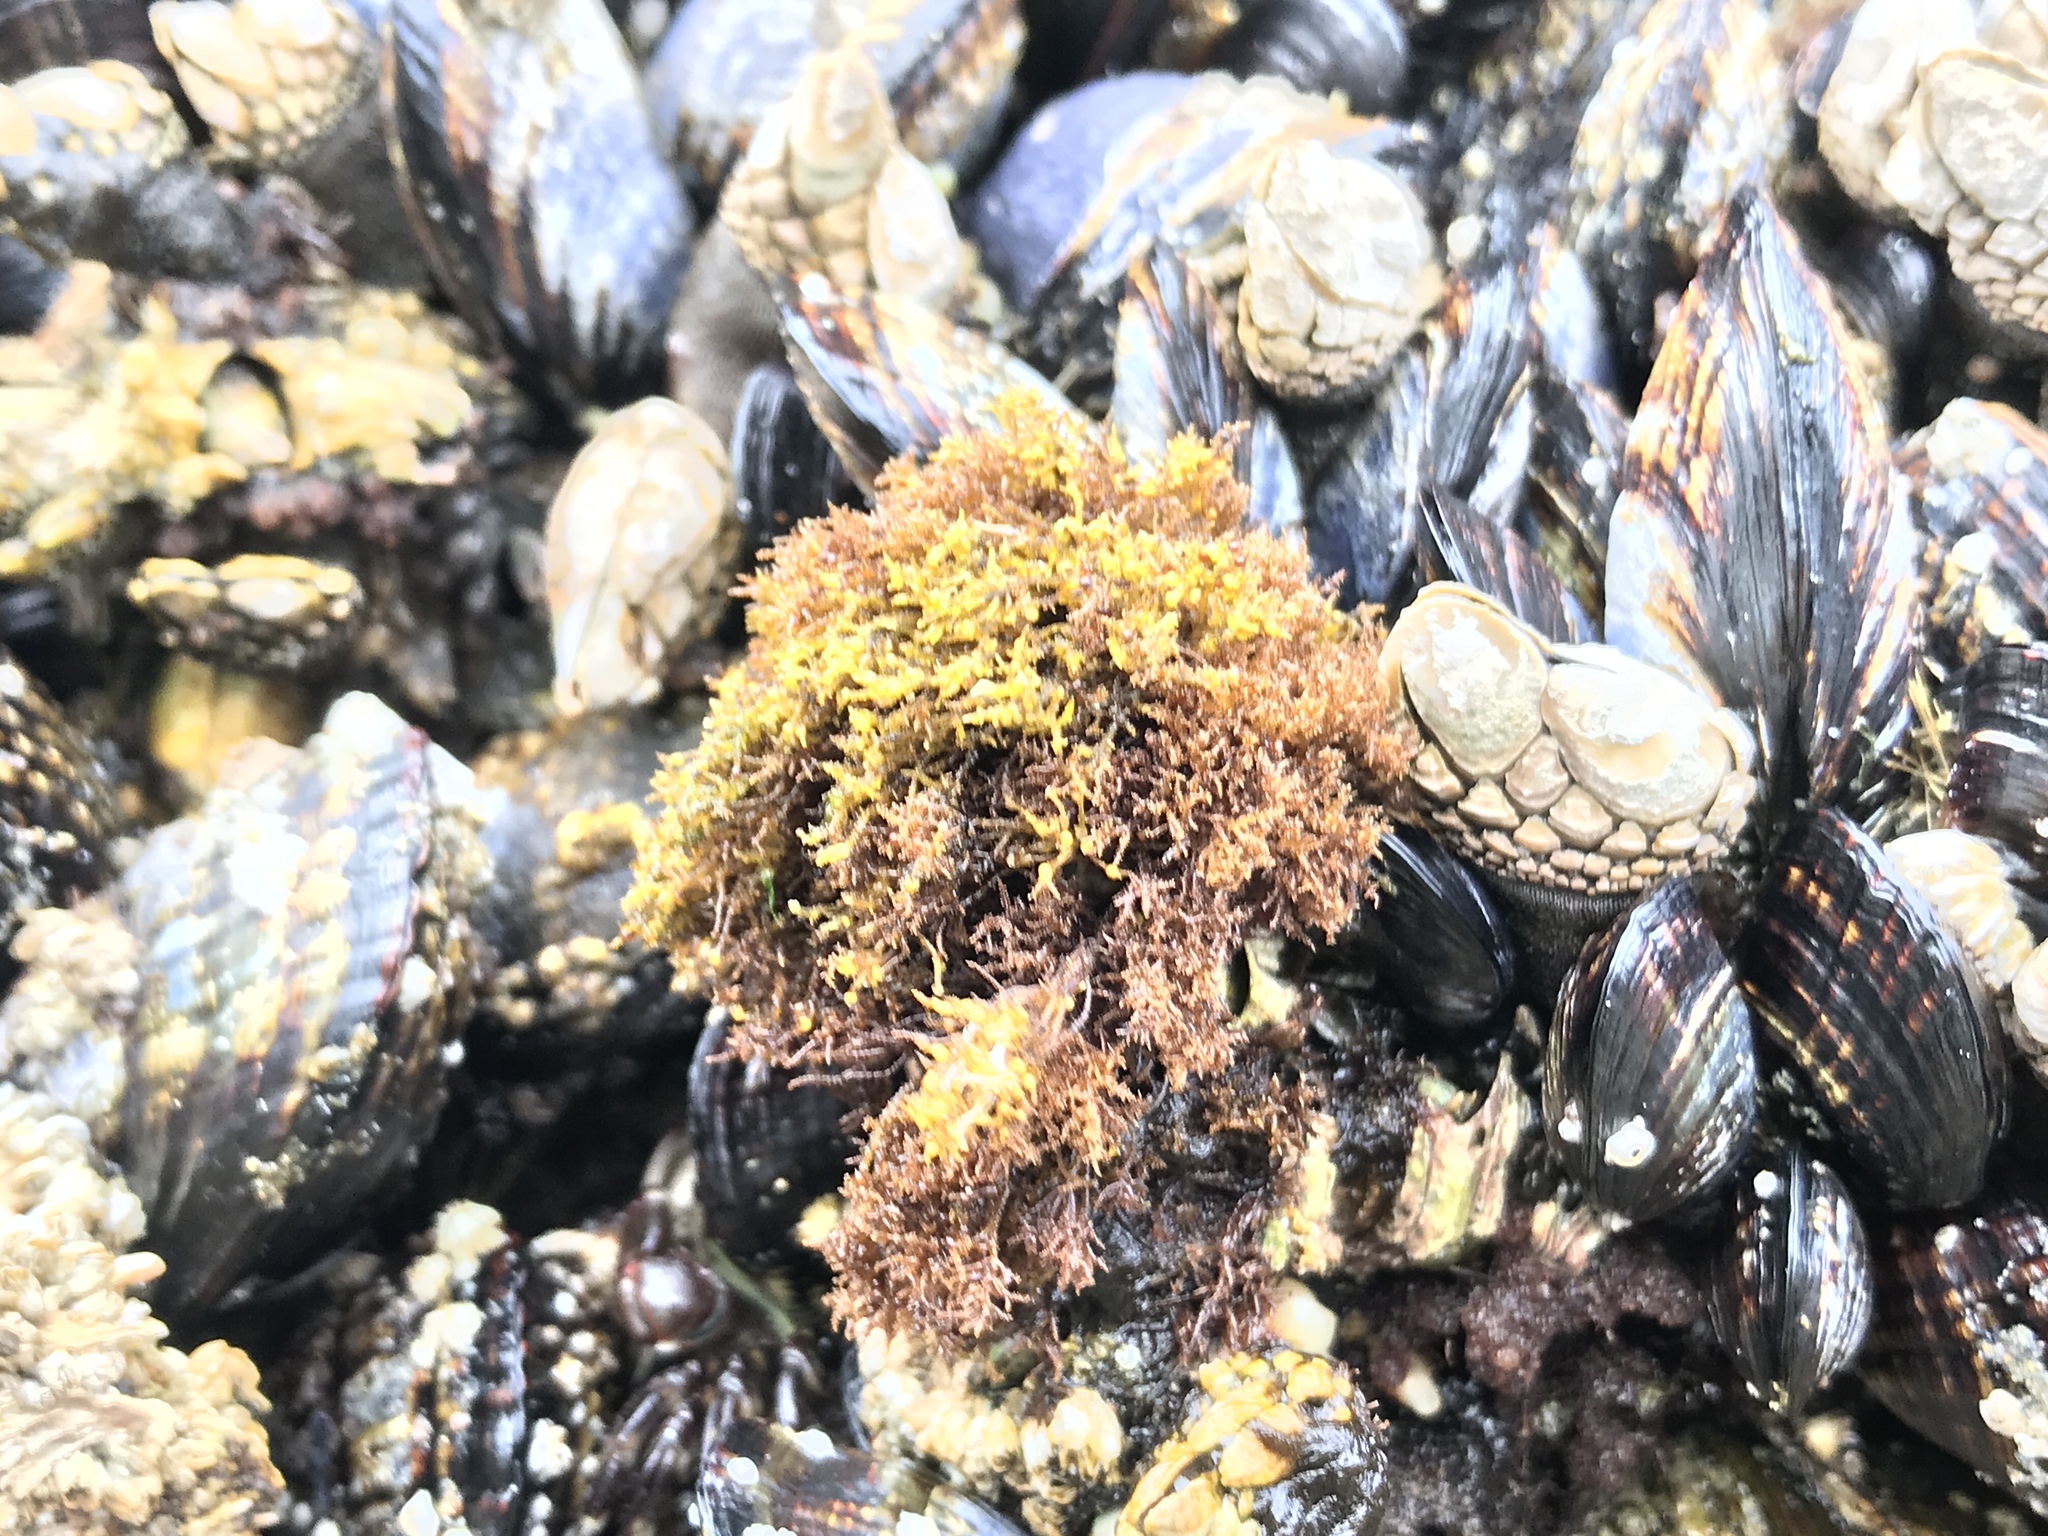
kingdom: Plantae
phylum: Rhodophyta
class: Florideophyceae
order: Gigartinales
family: Endocladiaceae
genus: Endocladia
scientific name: Endocladia muricata
